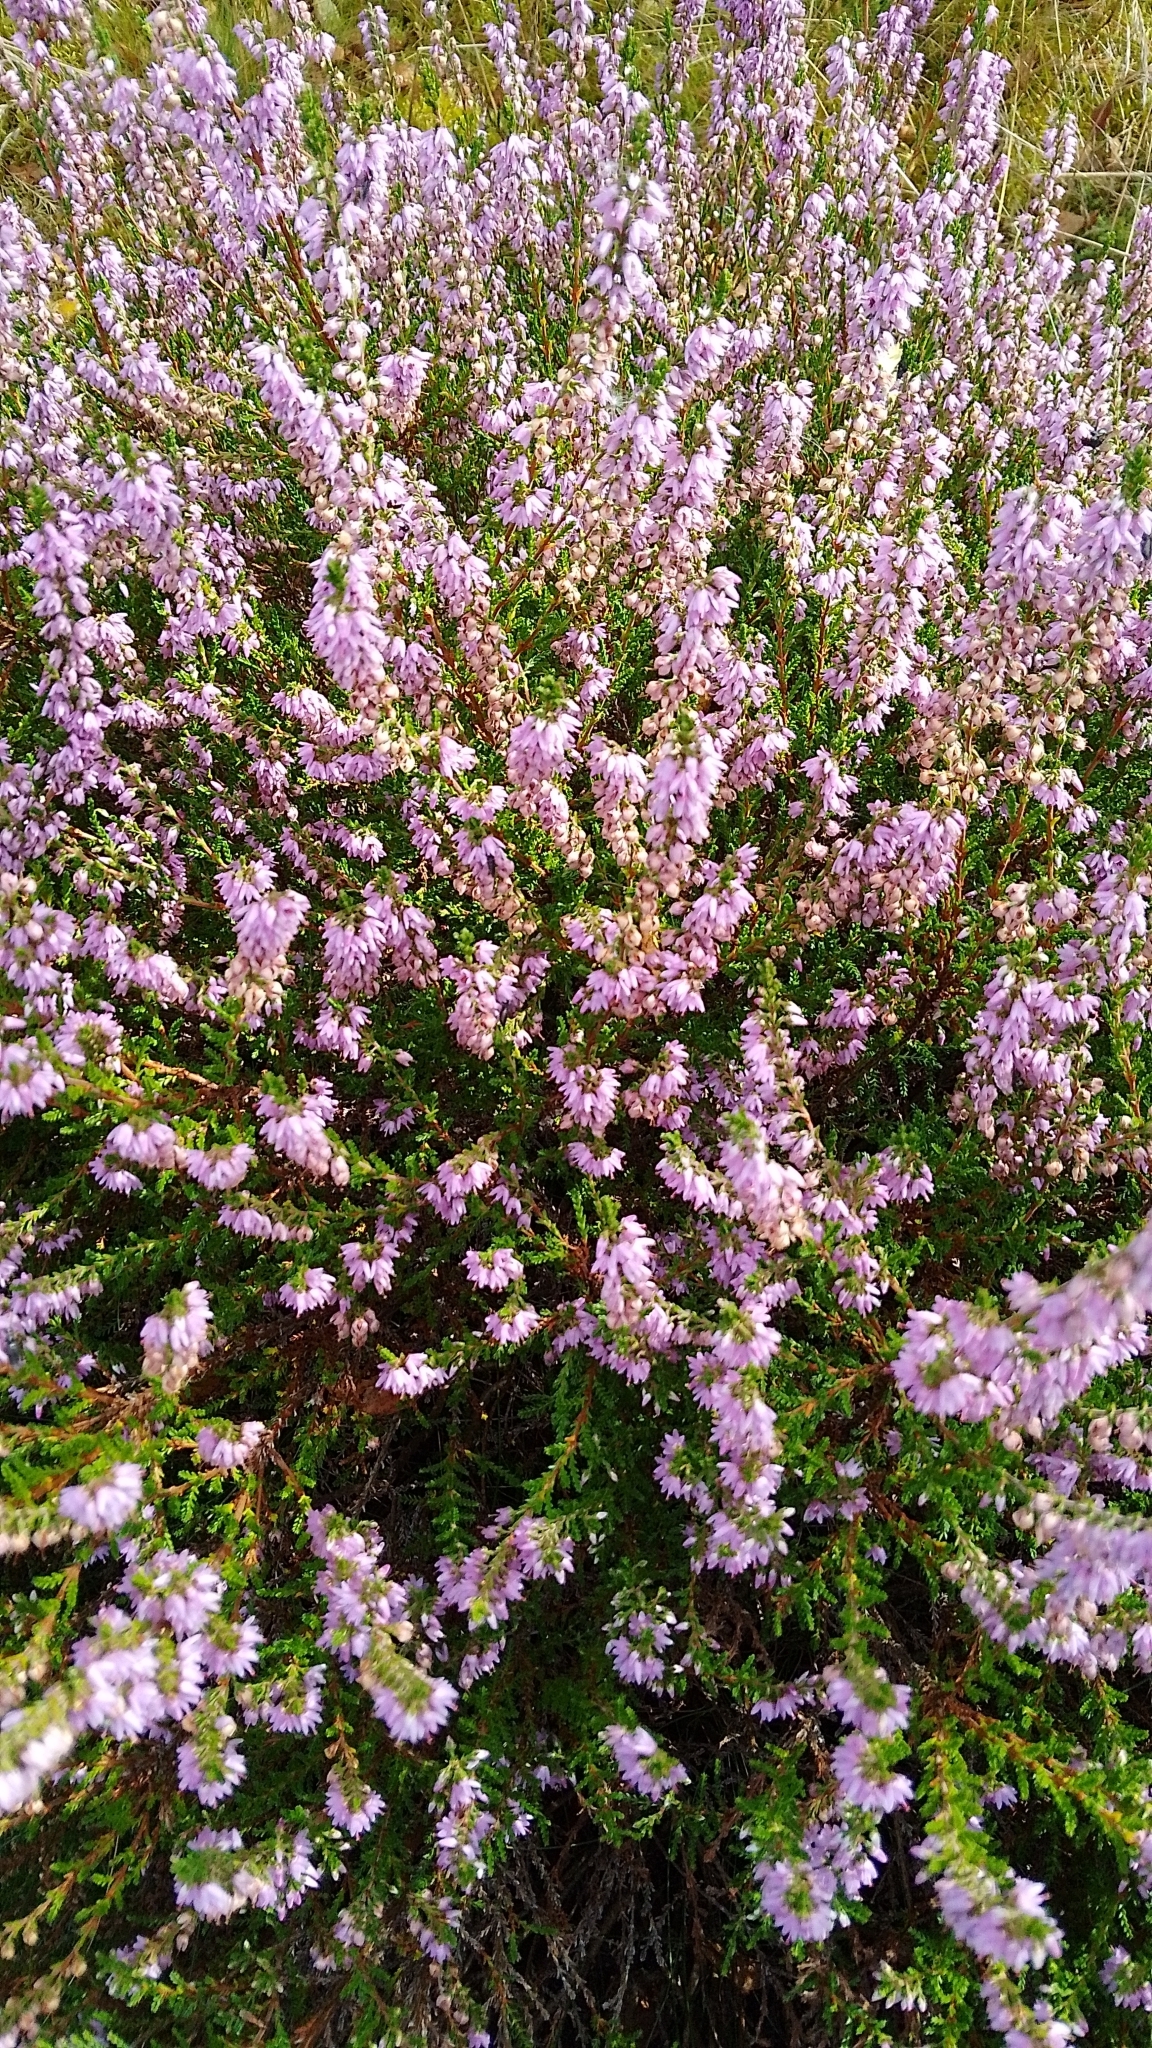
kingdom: Plantae
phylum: Tracheophyta
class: Magnoliopsida
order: Ericales
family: Ericaceae
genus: Calluna
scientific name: Calluna vulgaris
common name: Heather
